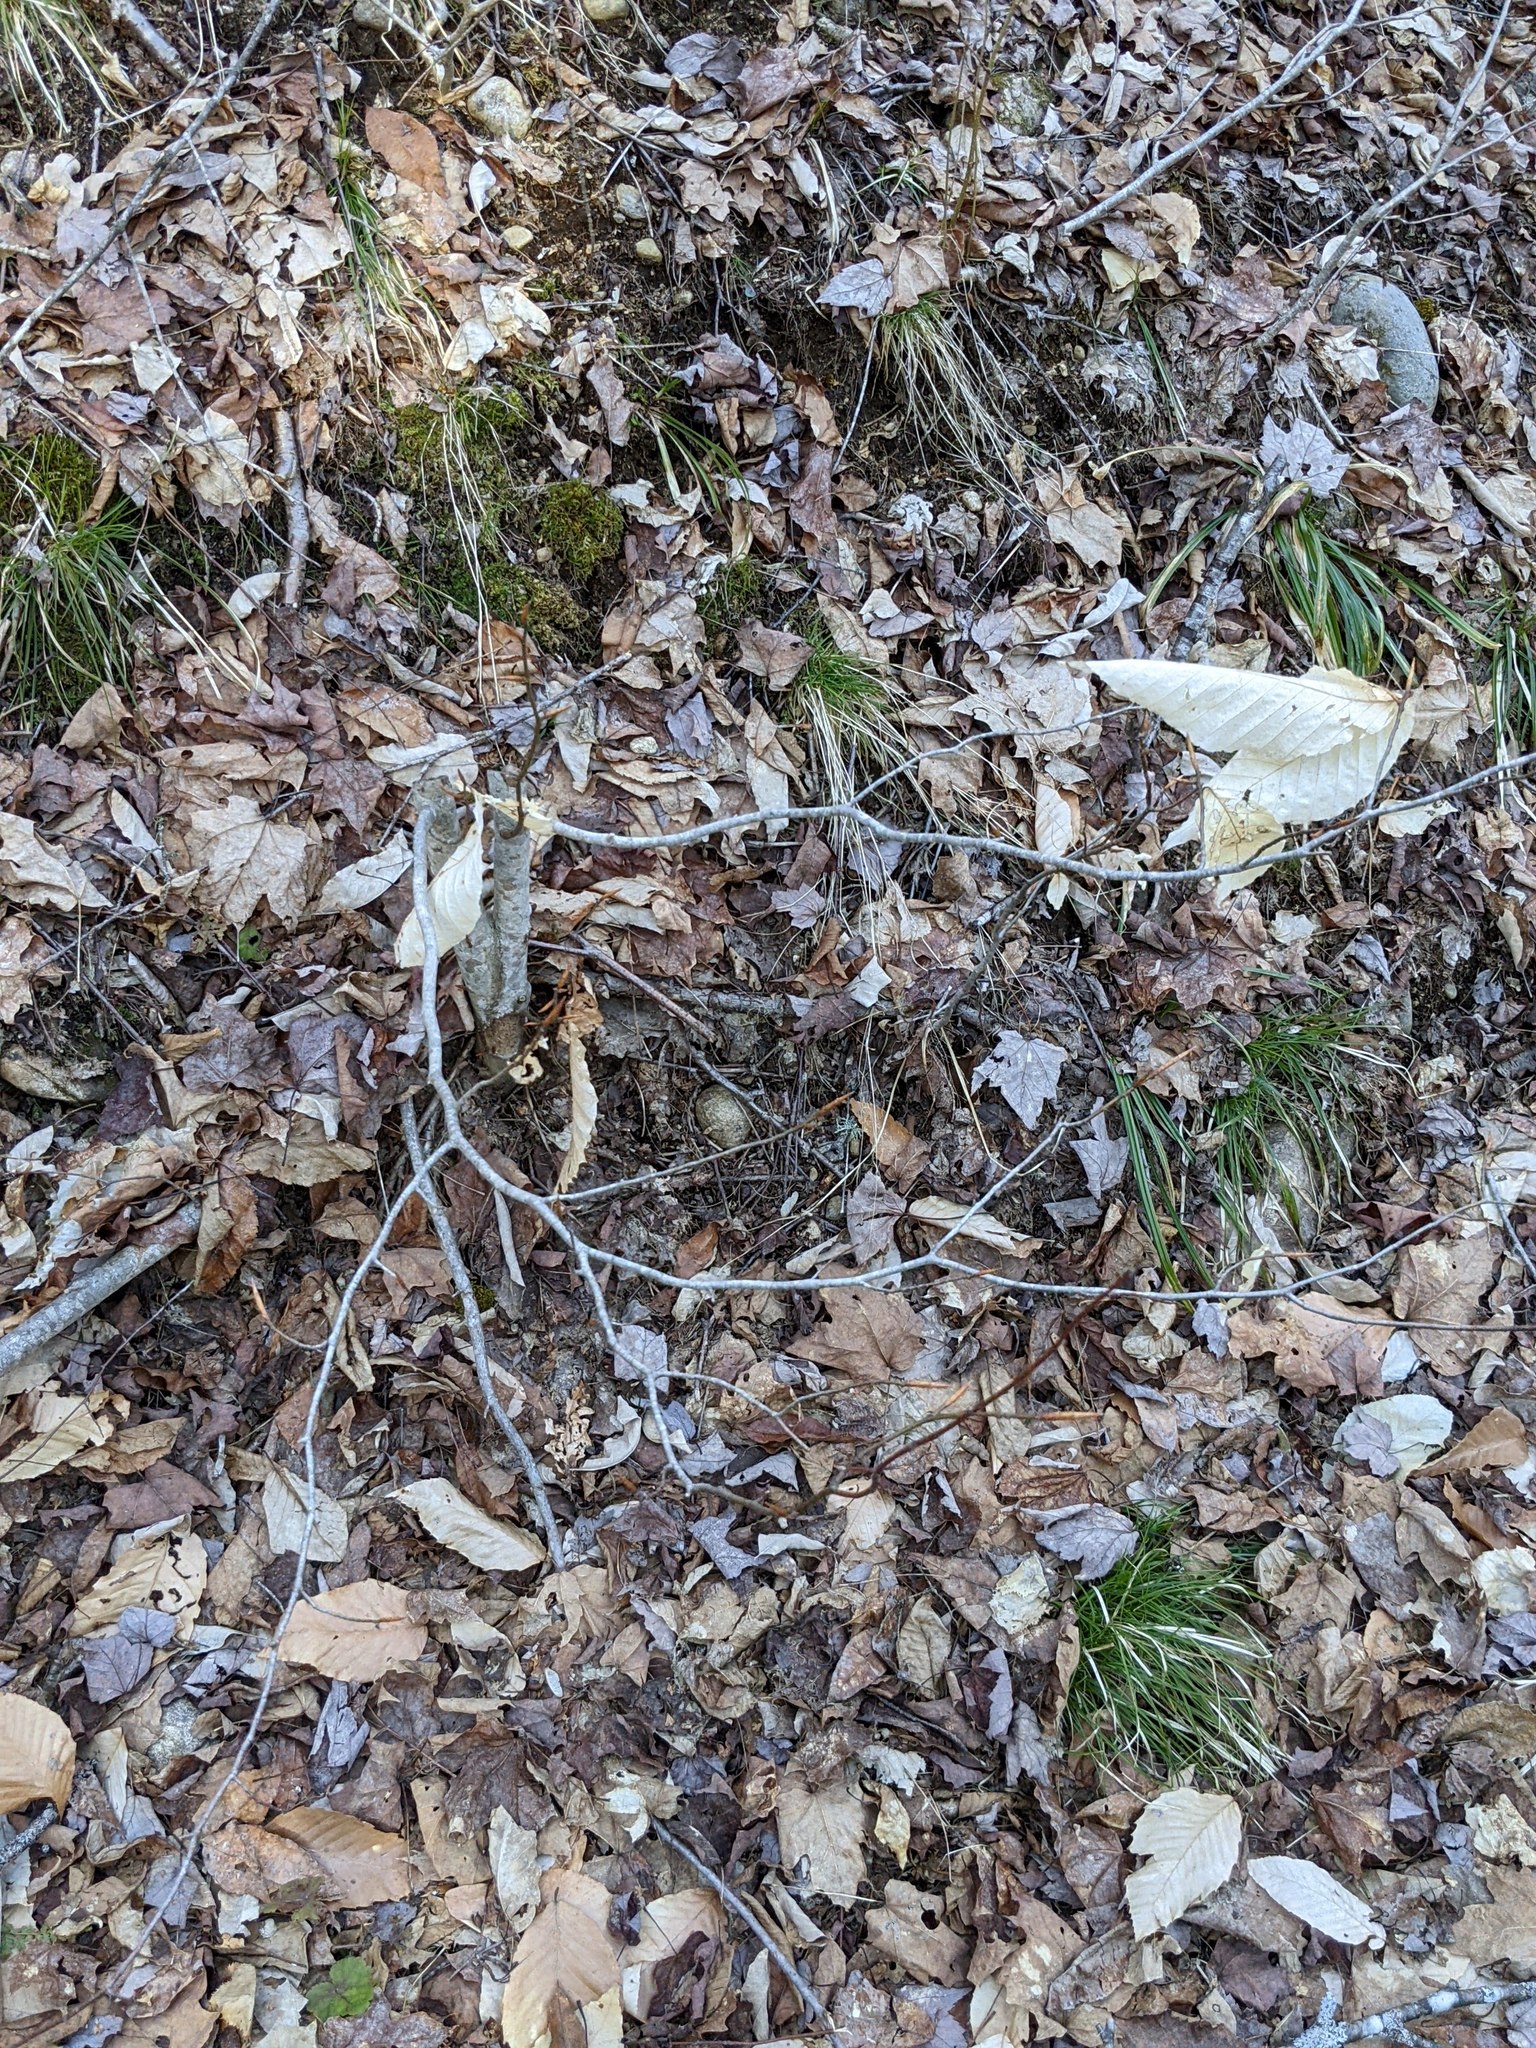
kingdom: Plantae
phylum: Tracheophyta
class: Magnoliopsida
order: Fagales
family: Fagaceae
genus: Fagus
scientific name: Fagus grandifolia
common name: American beech
